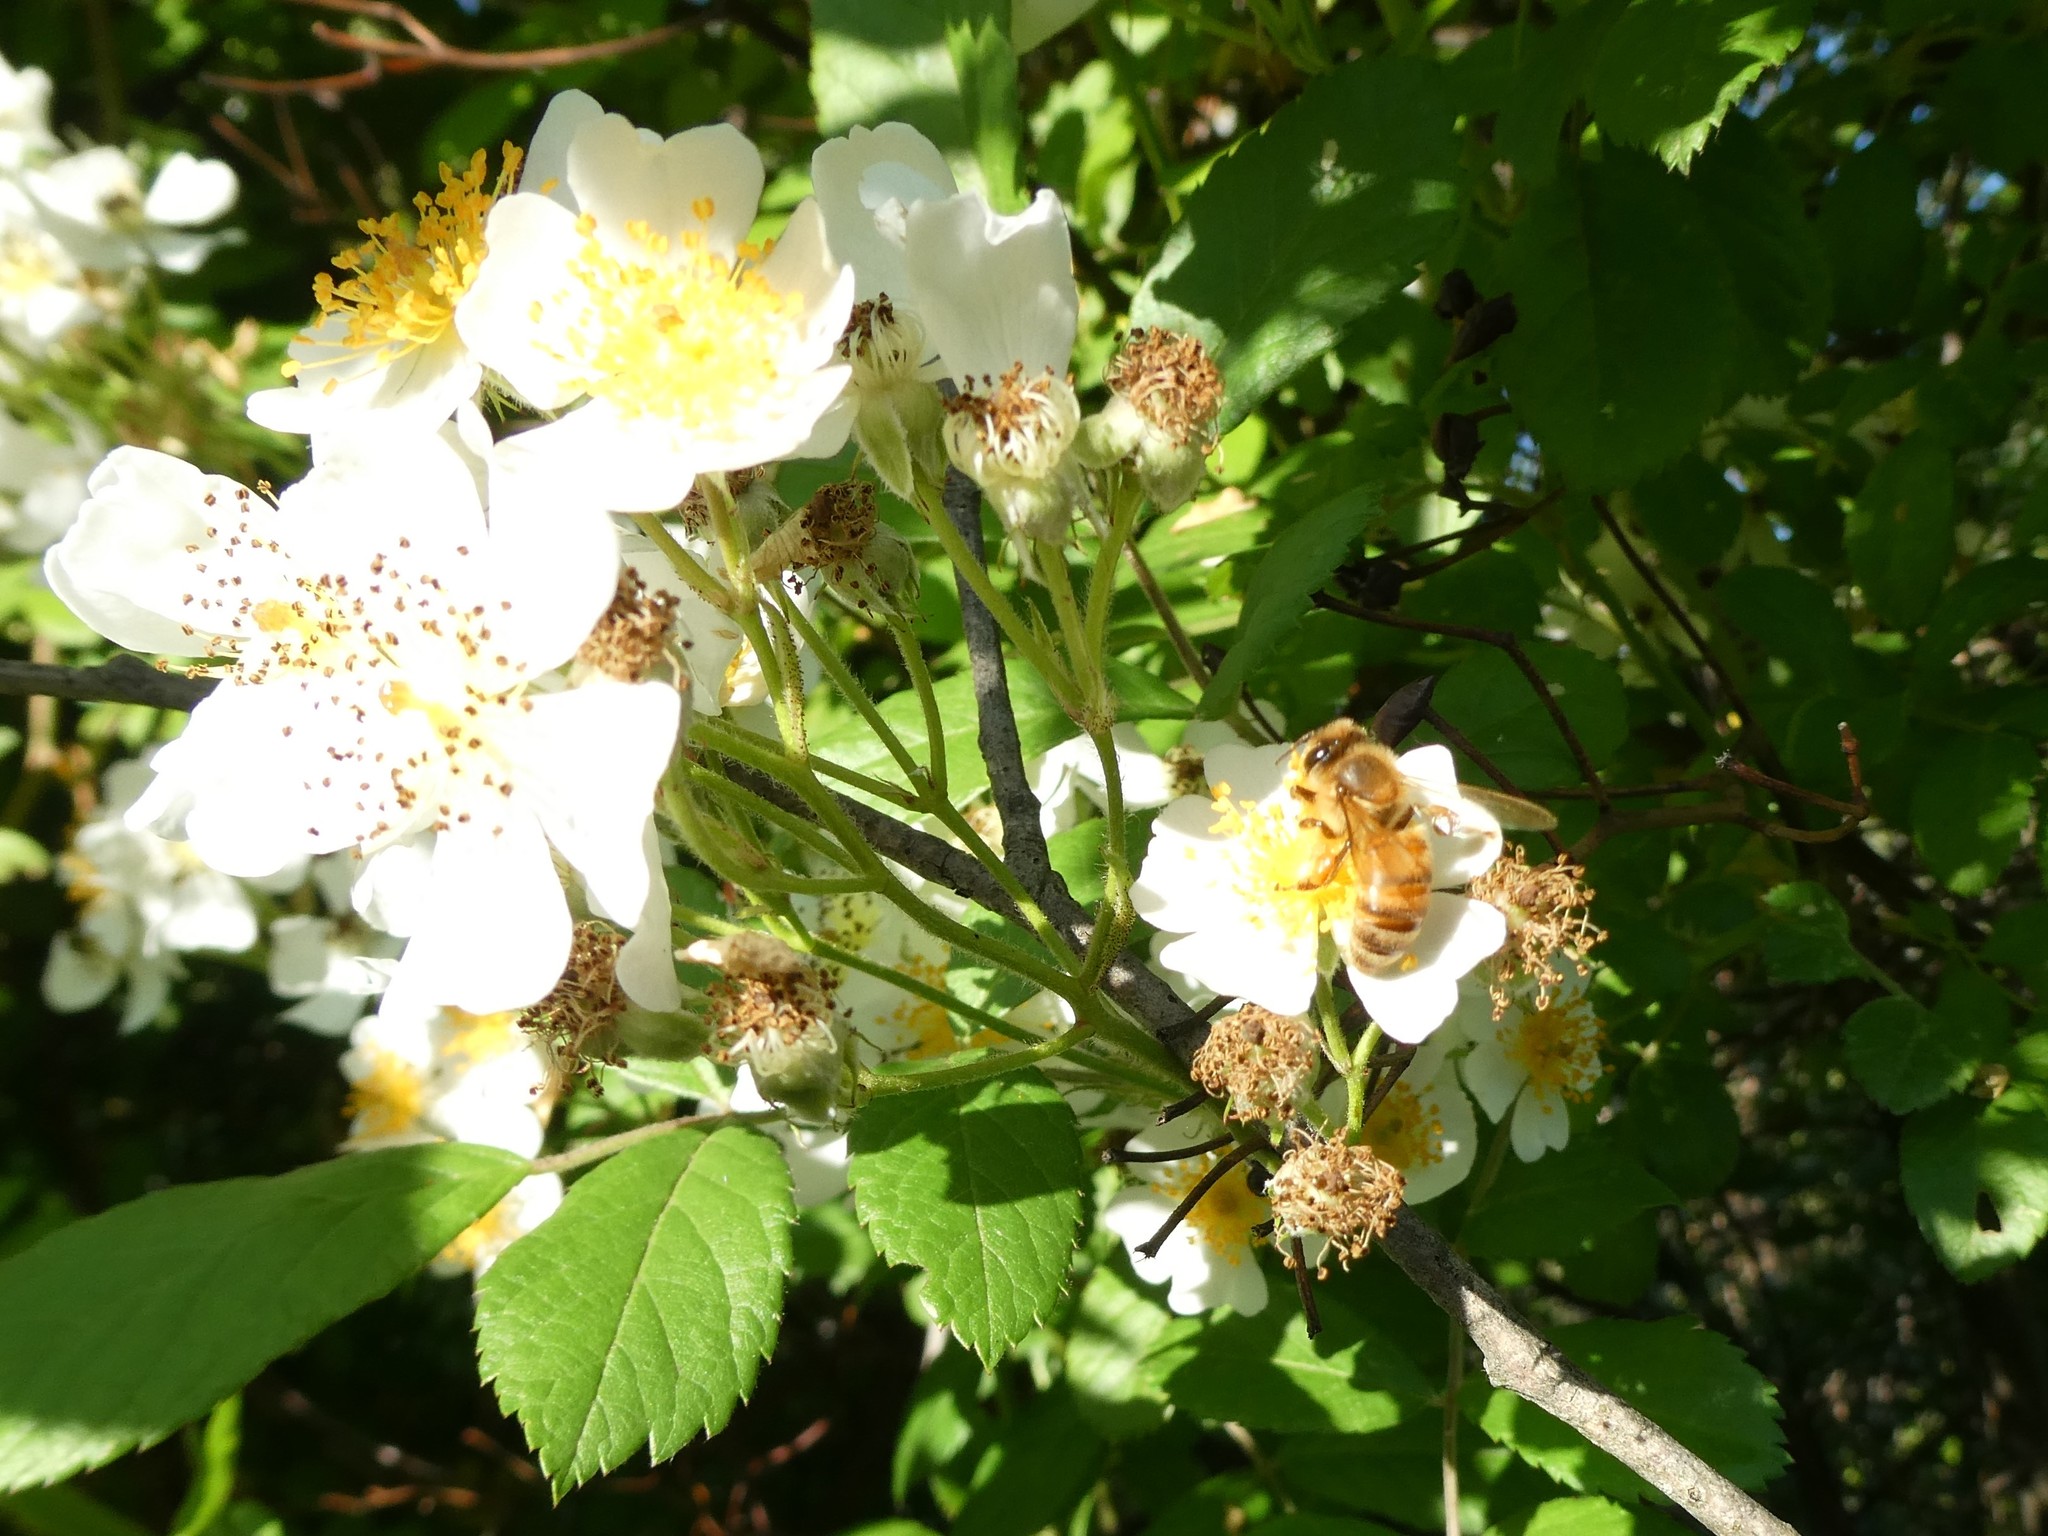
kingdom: Animalia
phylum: Arthropoda
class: Insecta
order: Hymenoptera
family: Apidae
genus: Apis
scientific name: Apis mellifera
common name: Honey bee
